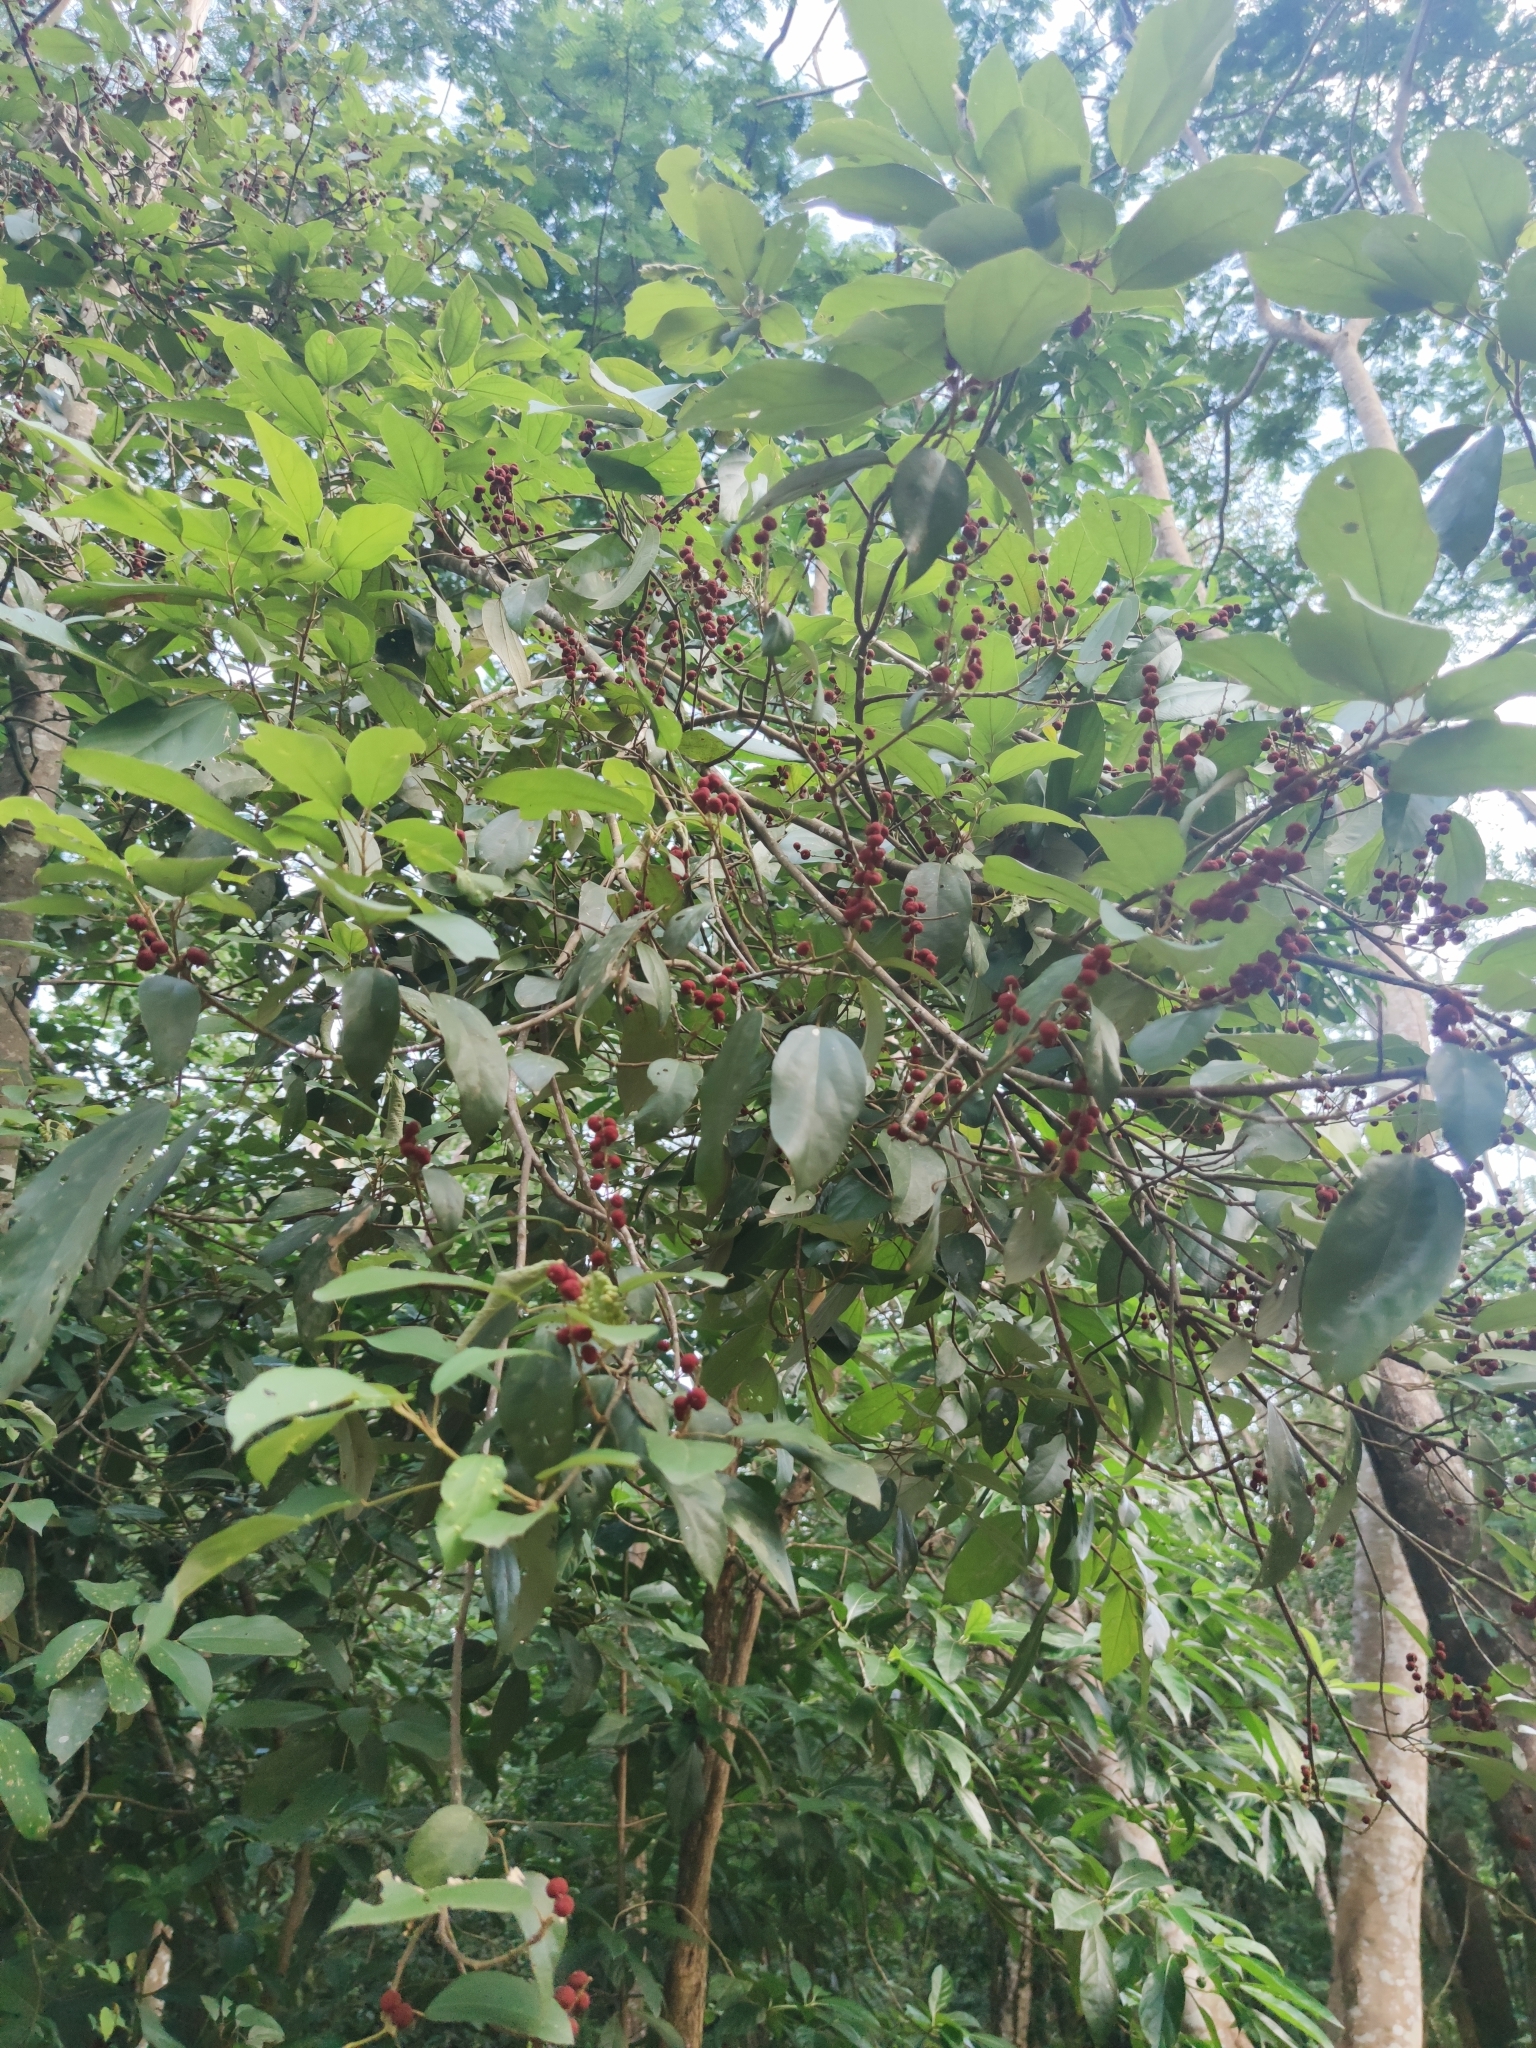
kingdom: Plantae
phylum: Tracheophyta
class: Magnoliopsida
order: Malpighiales
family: Euphorbiaceae
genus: Mallotus
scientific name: Mallotus philippensis
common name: Kamala tree
